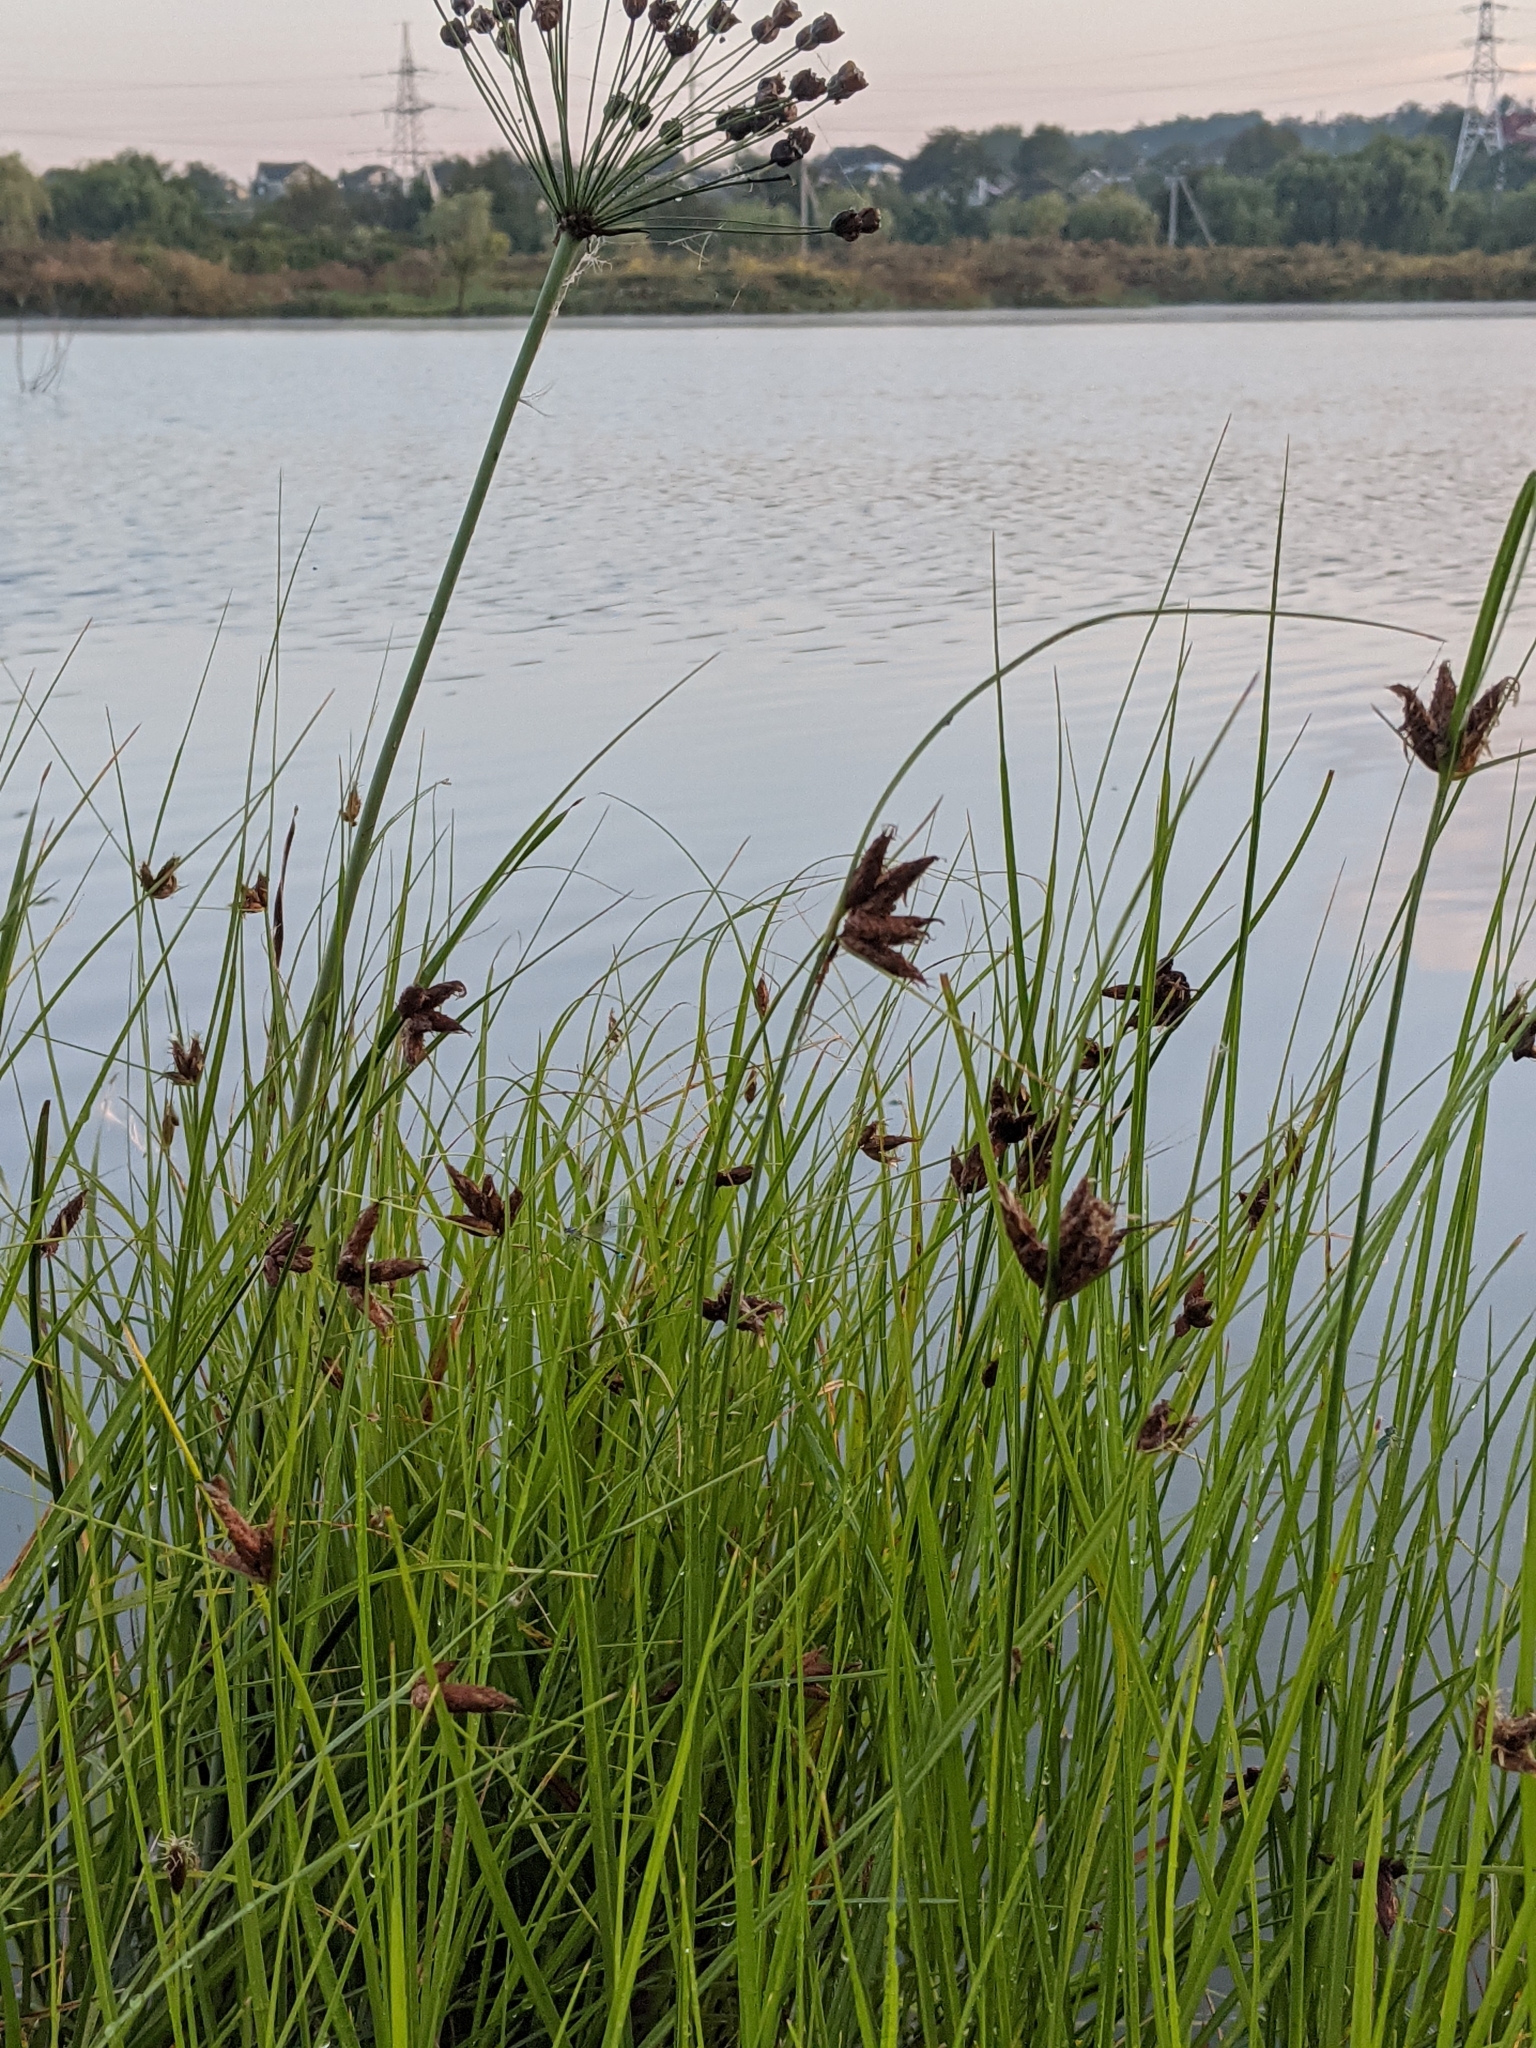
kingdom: Plantae
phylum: Tracheophyta
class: Liliopsida
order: Poales
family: Cyperaceae
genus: Bolboschoenus
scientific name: Bolboschoenus maritimus
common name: Sea club-rush
